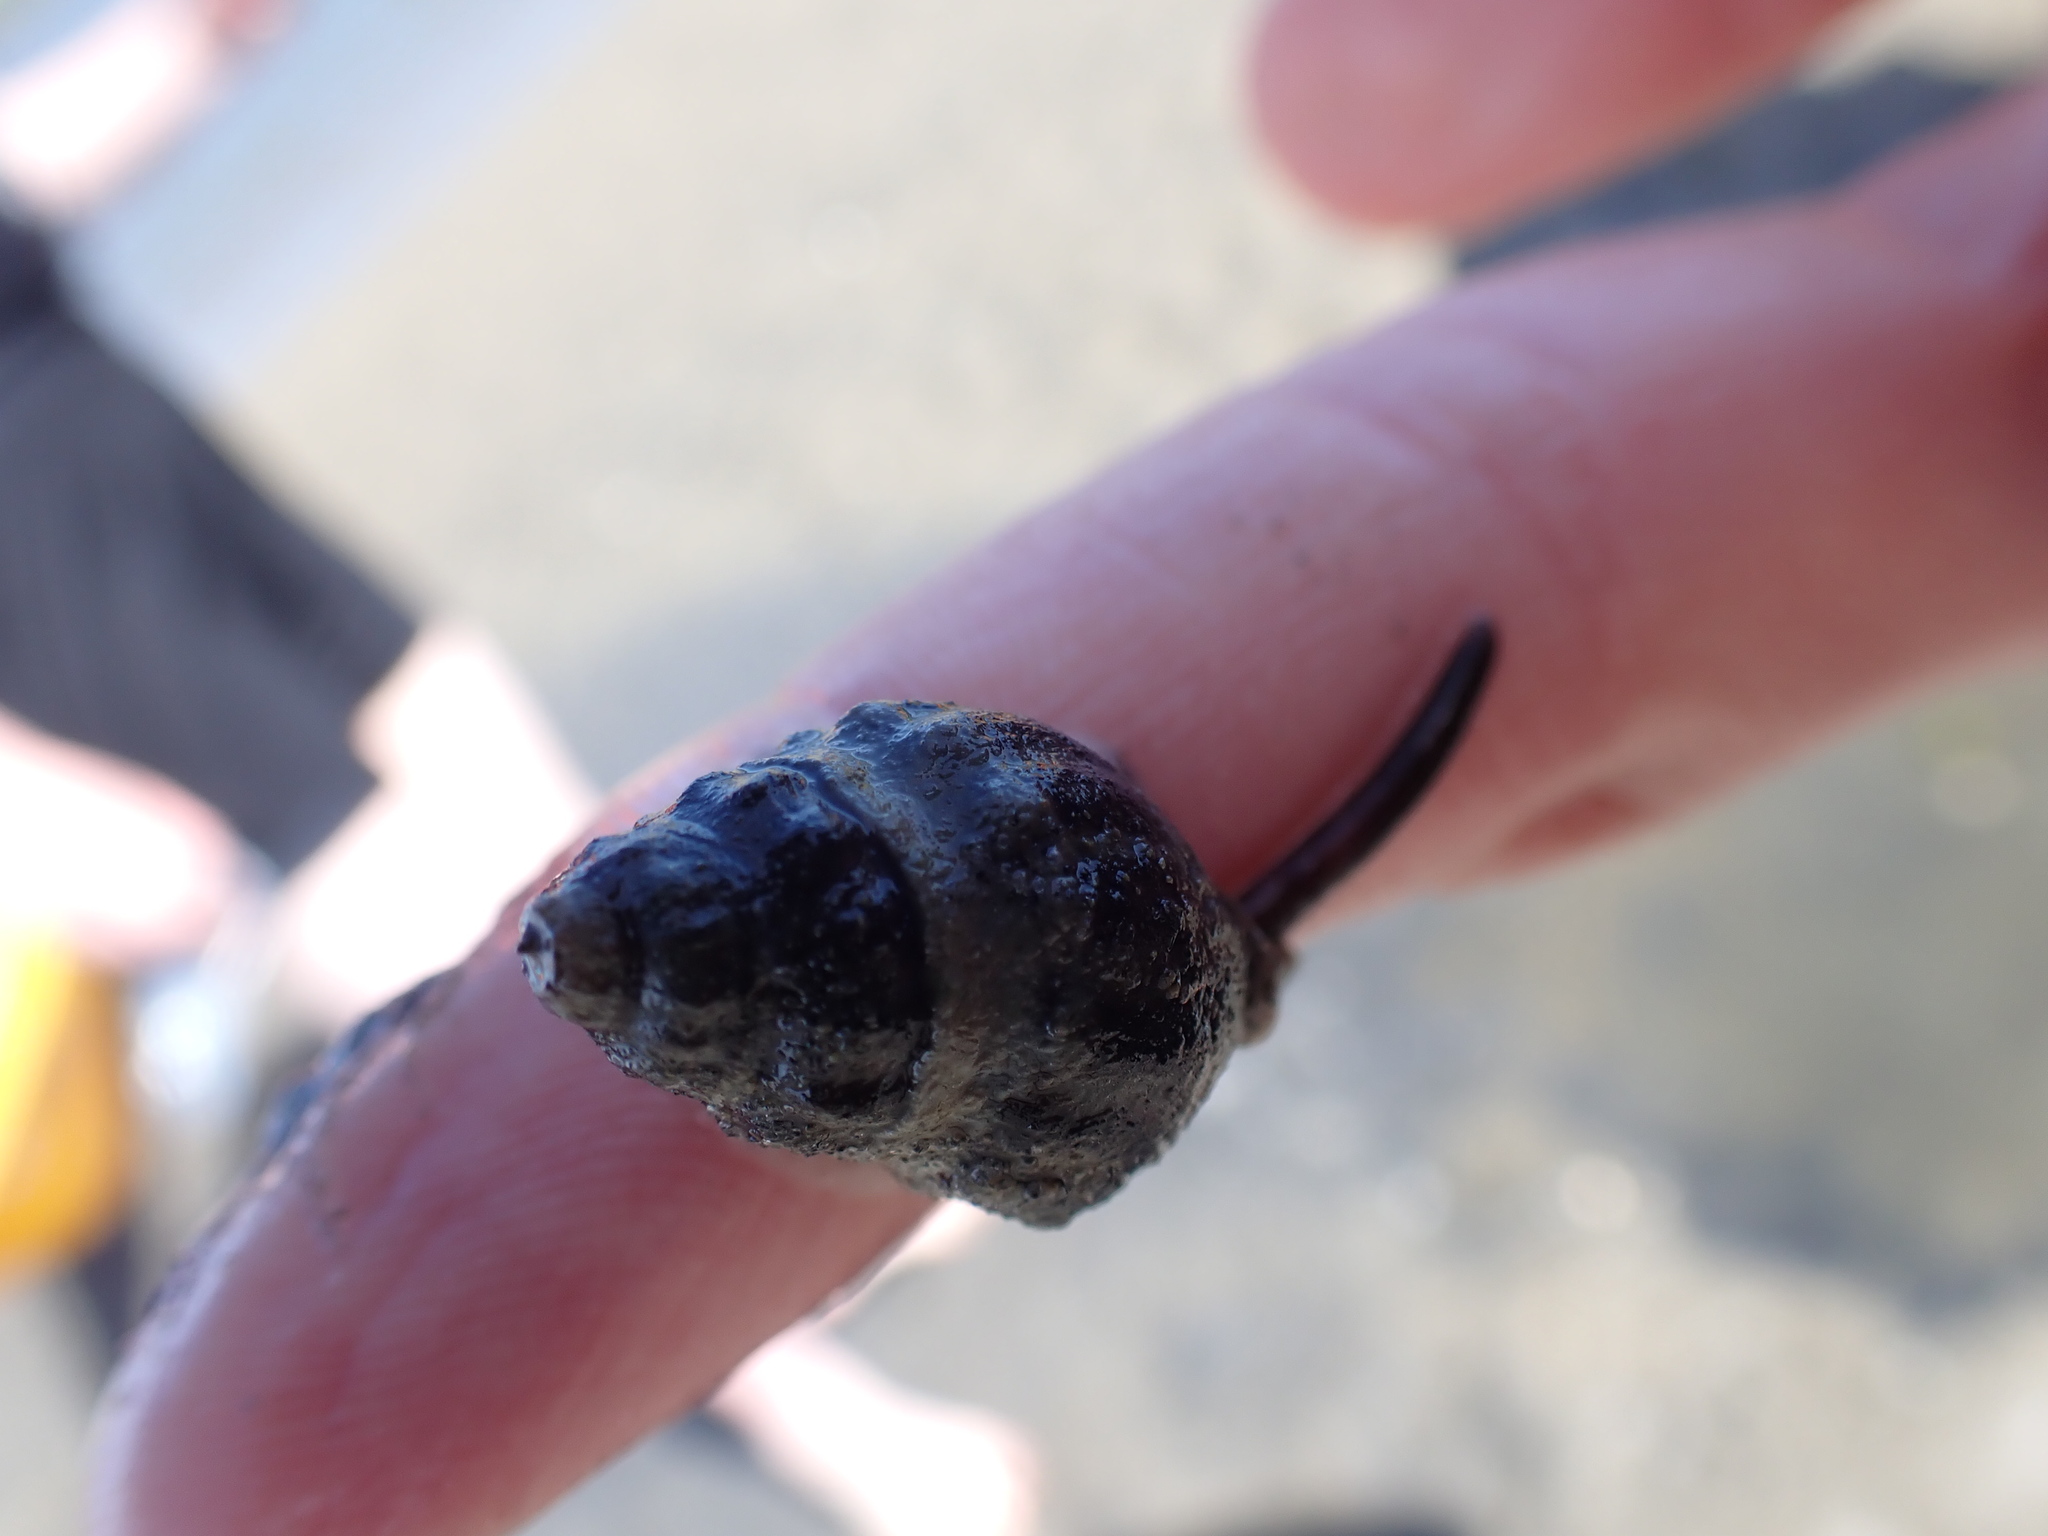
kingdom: Animalia
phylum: Mollusca
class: Gastropoda
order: Neogastropoda
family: Cominellidae
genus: Cominella
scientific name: Cominella glandiformis
